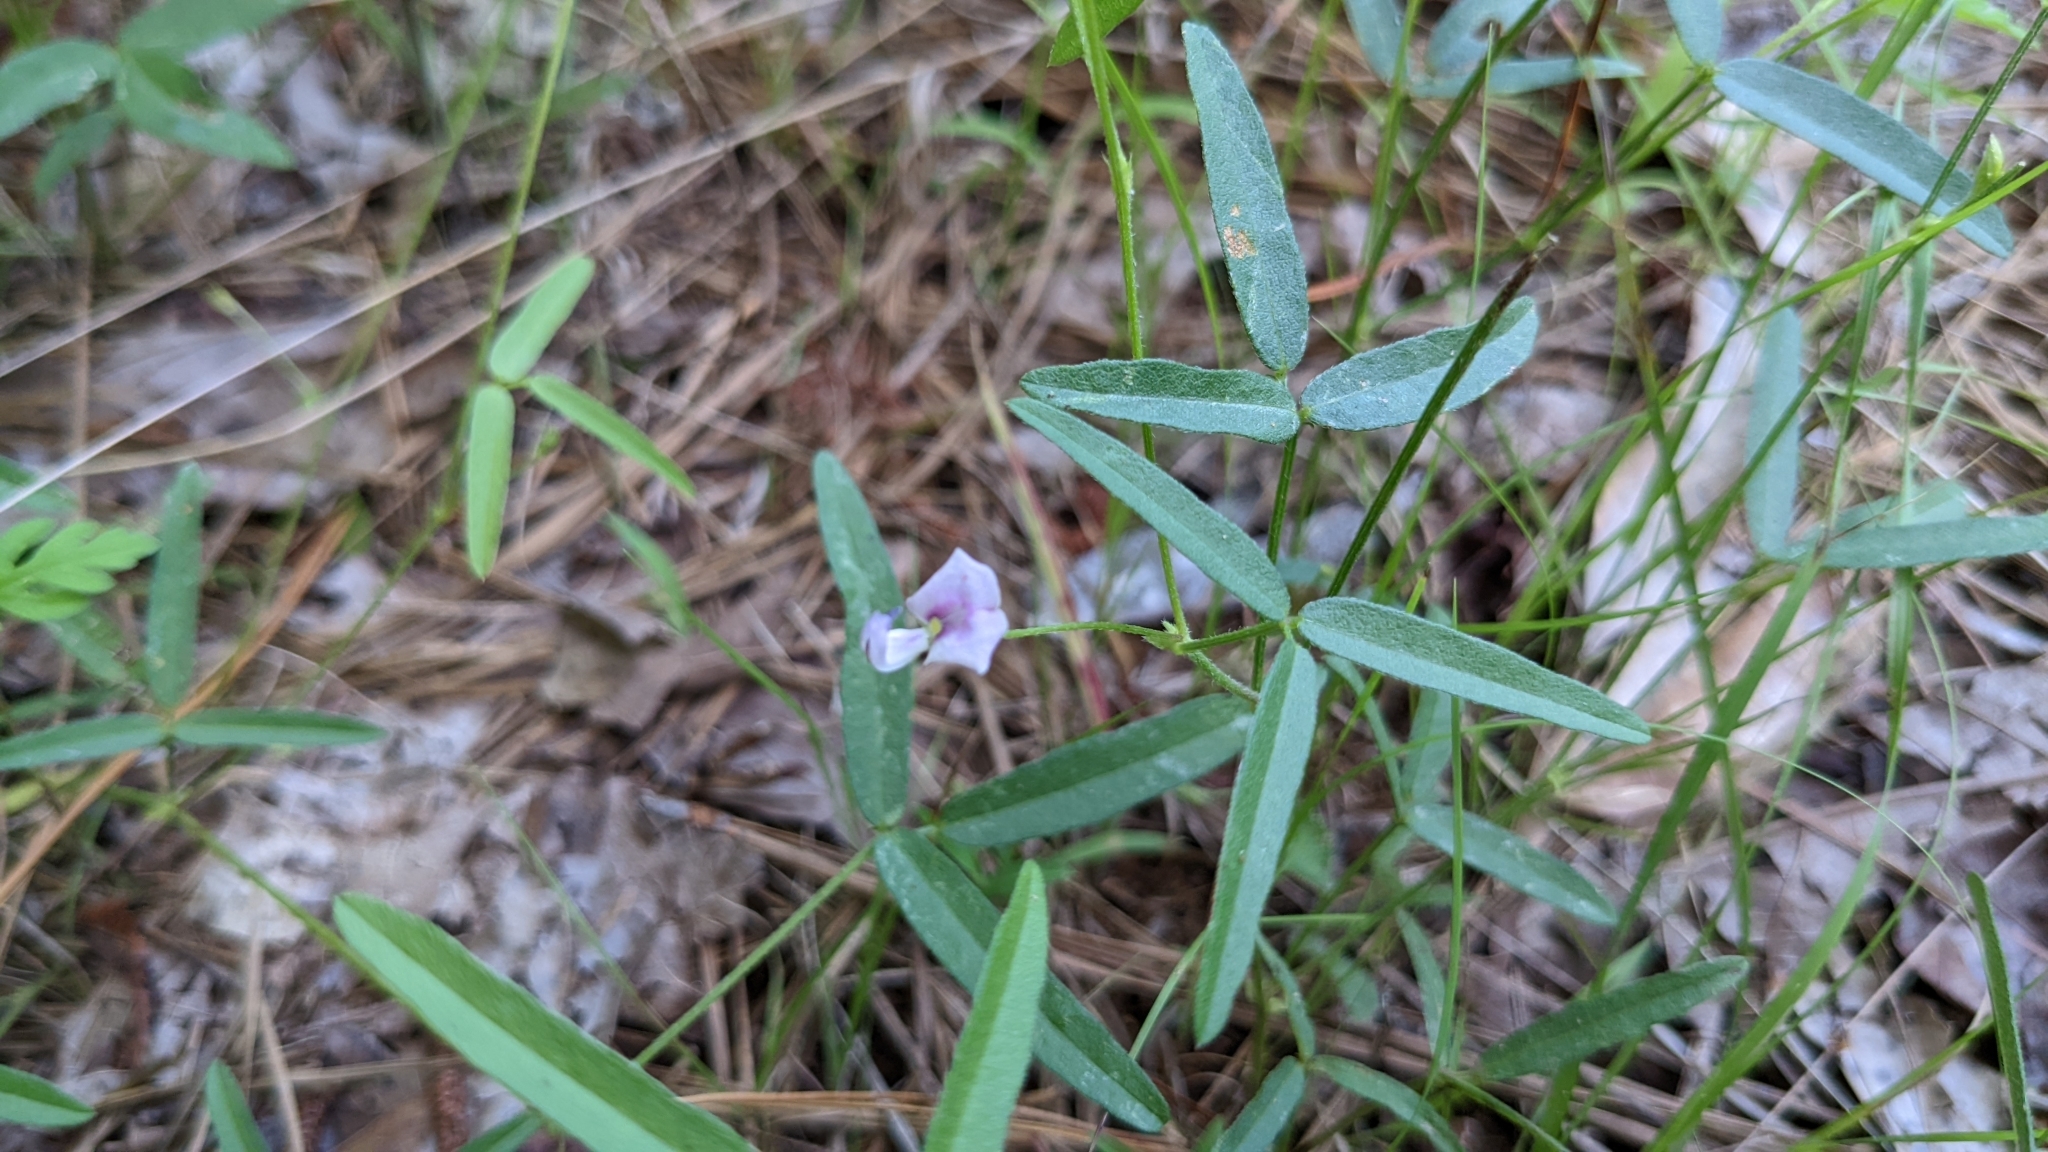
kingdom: Plantae
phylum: Tracheophyta
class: Magnoliopsida
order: Fabales
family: Fabaceae
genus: Strophostyles
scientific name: Strophostyles leiosperma
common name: Smooth-seed wild bean
